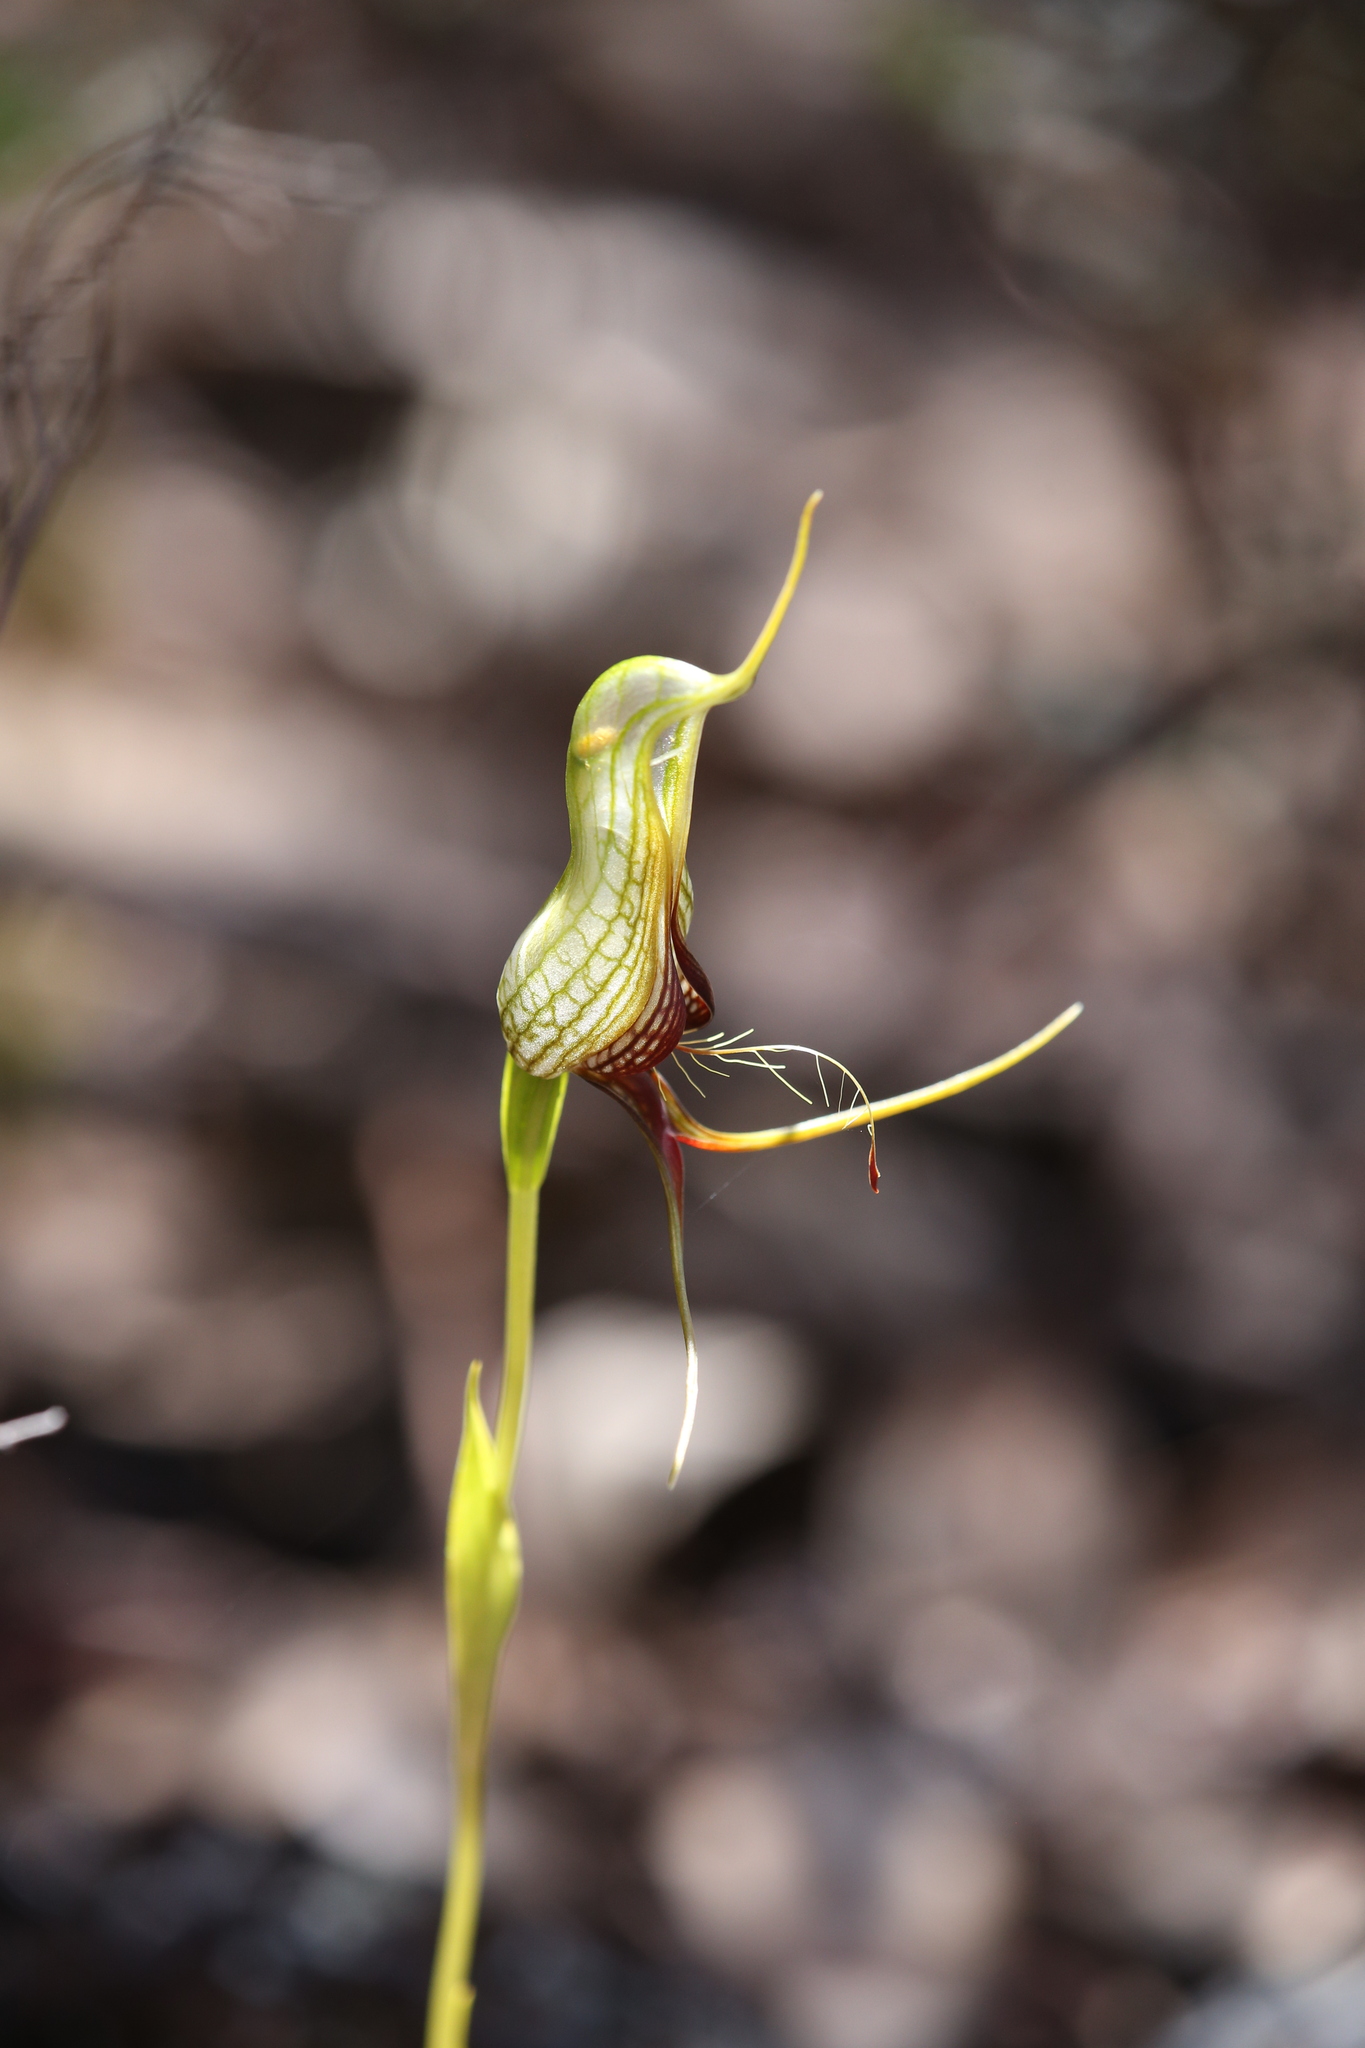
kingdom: Plantae
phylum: Tracheophyta
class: Liliopsida
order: Asparagales
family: Orchidaceae
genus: Pterostylis
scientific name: Pterostylis barbata
